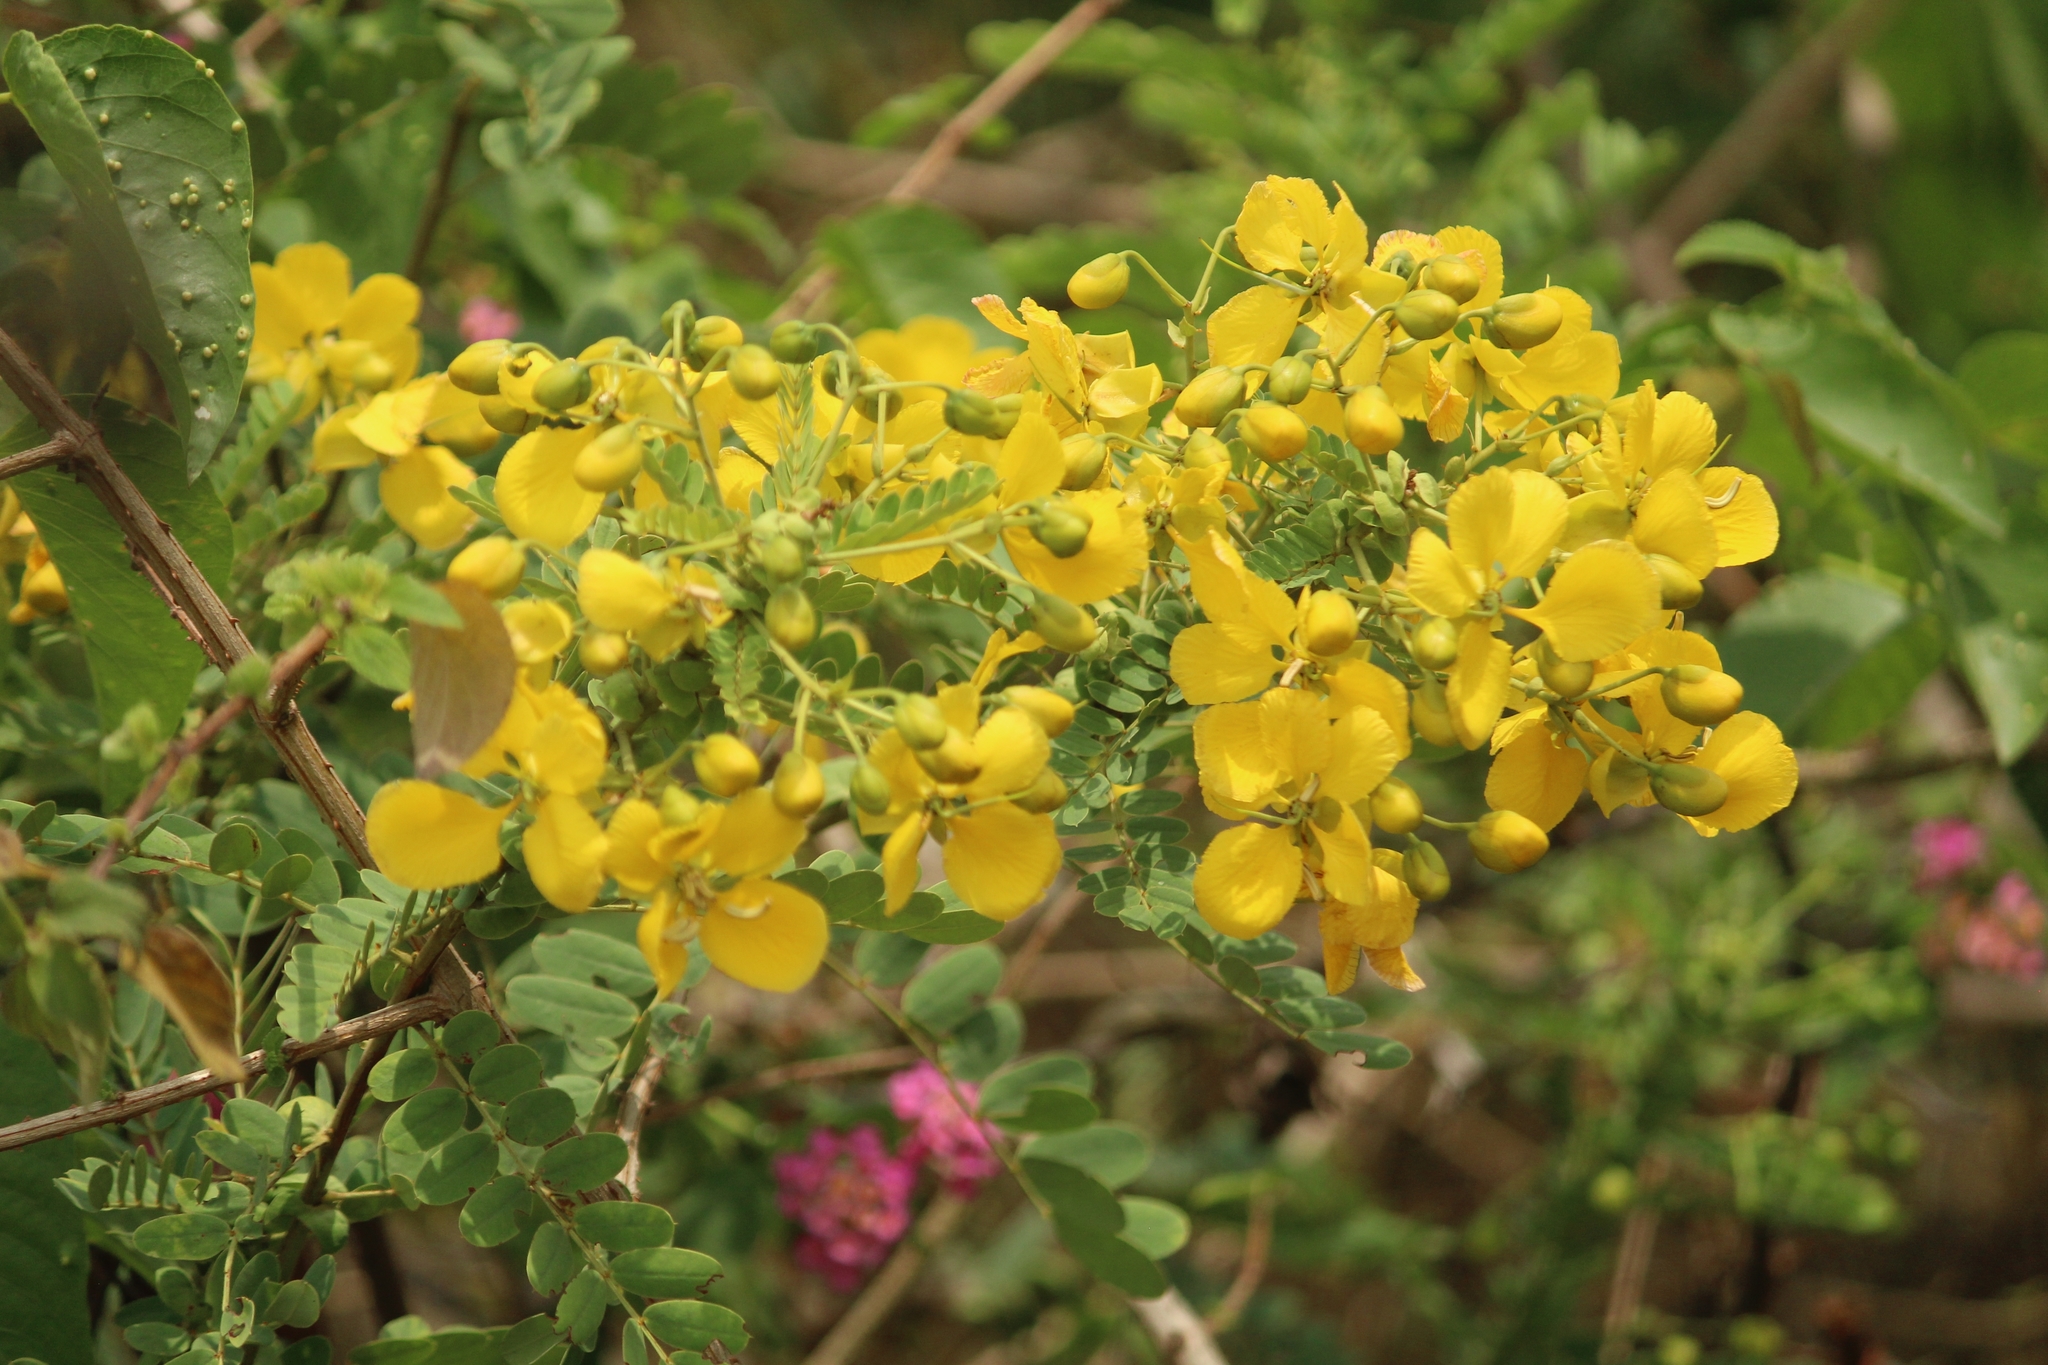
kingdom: Plantae
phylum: Tracheophyta
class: Magnoliopsida
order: Fabales
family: Fabaceae
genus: Senna
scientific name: Senna auriculata
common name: Tanner's cassia
